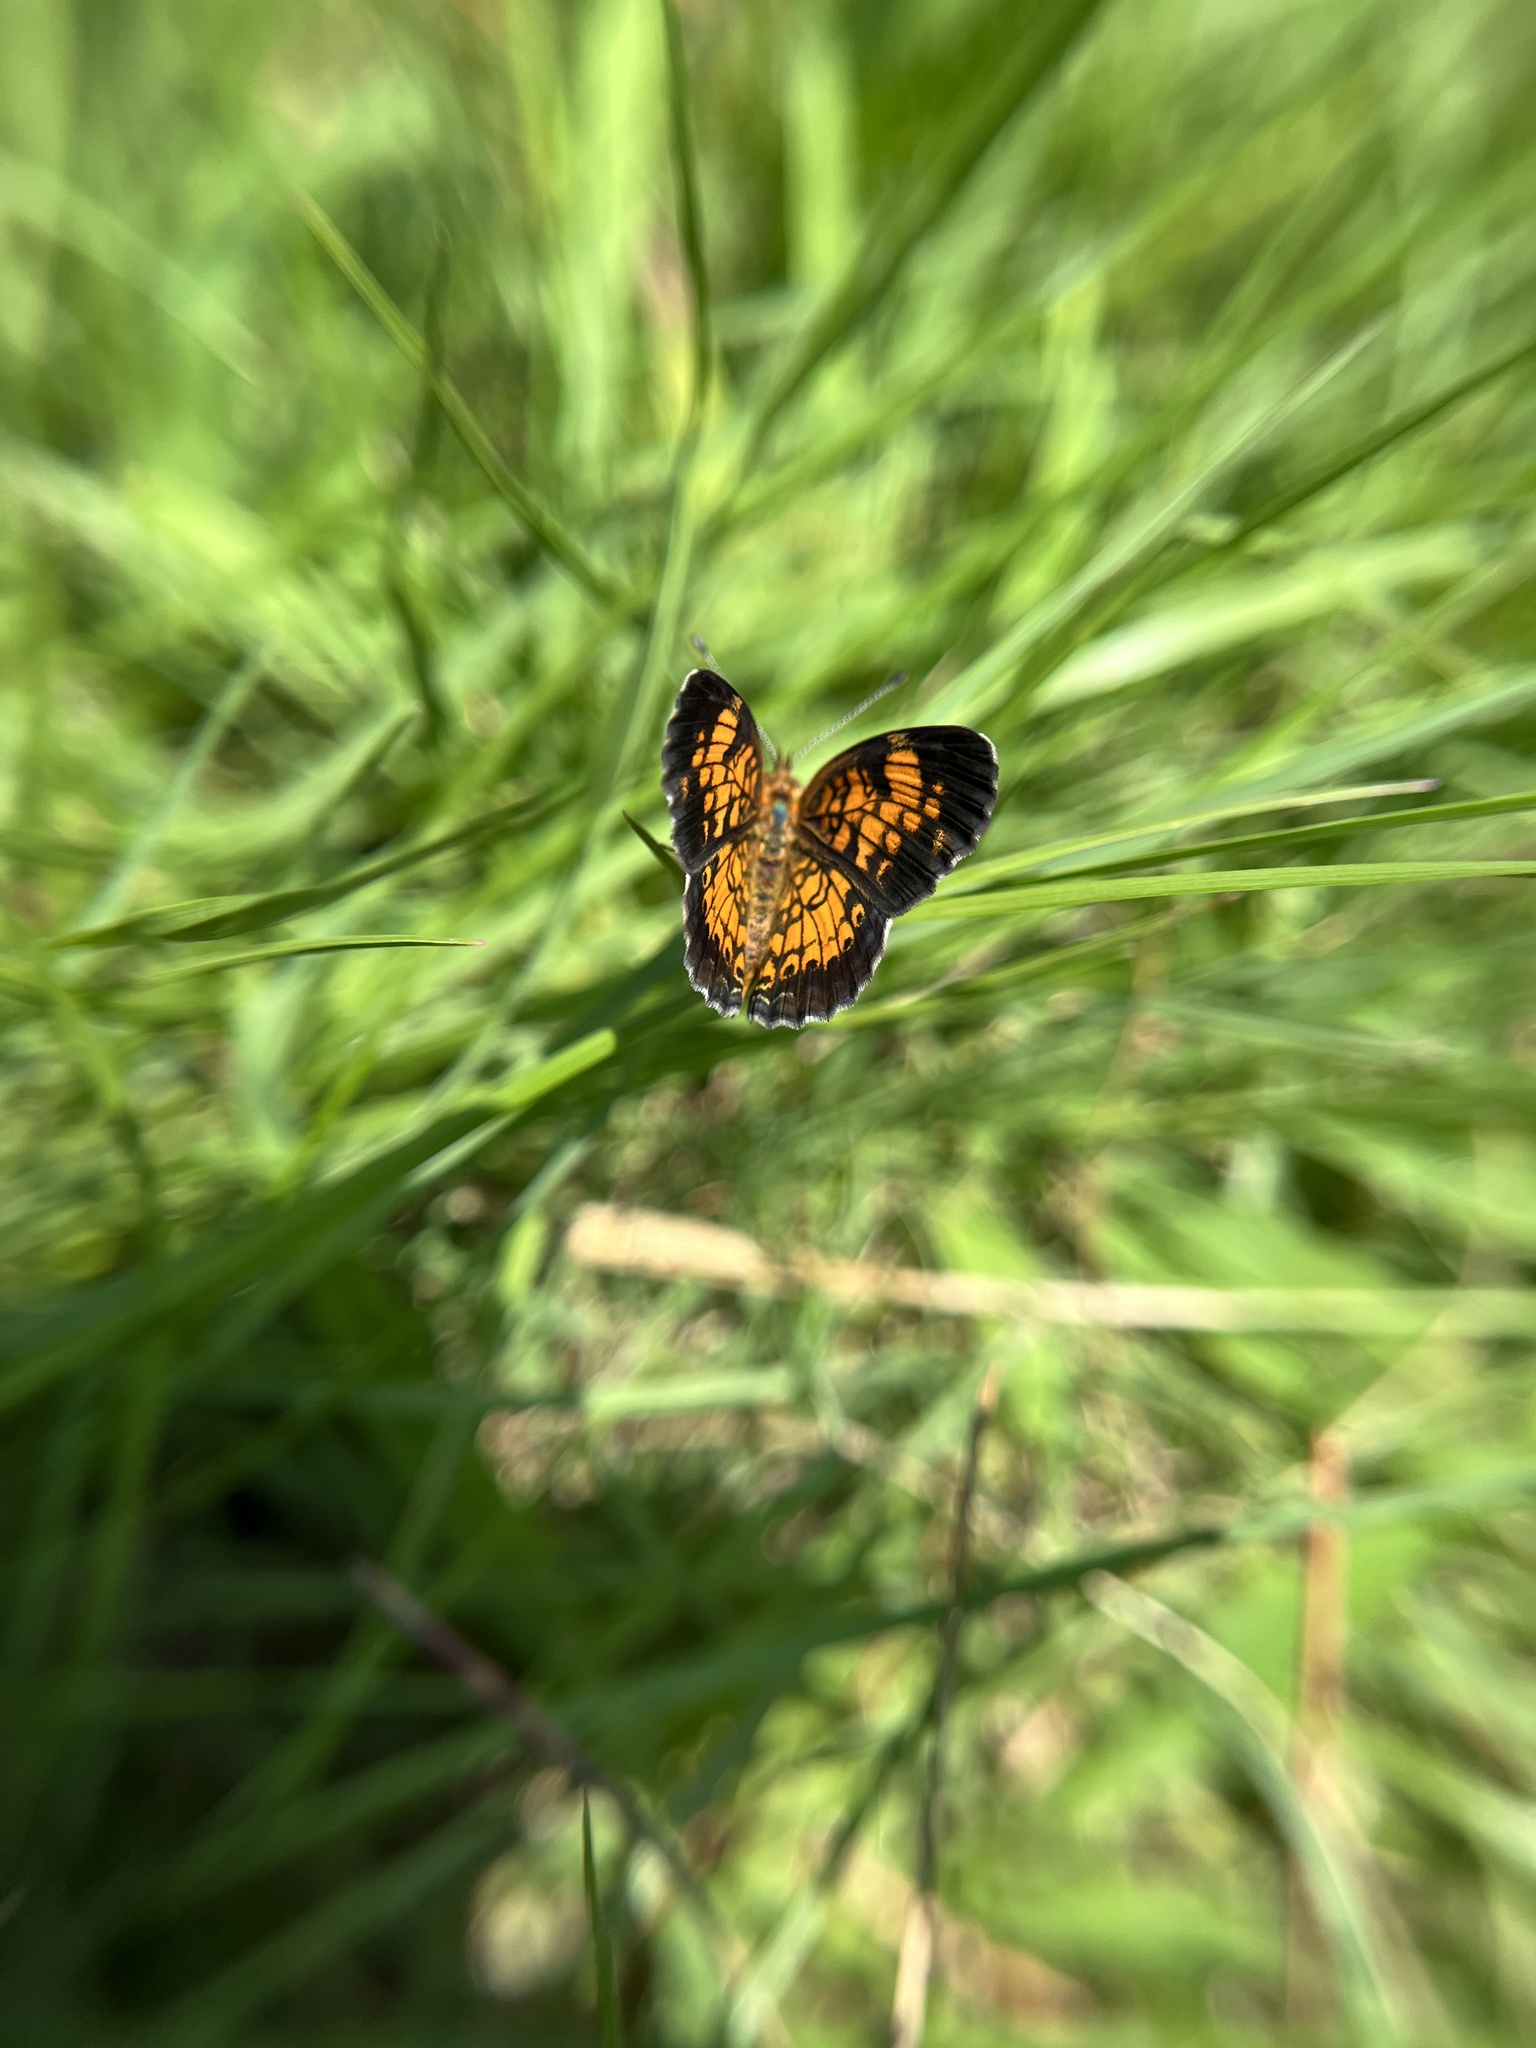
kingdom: Animalia
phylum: Arthropoda
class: Insecta
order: Lepidoptera
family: Nymphalidae
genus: Phyciodes
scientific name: Phyciodes tharos
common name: Pearl crescent
